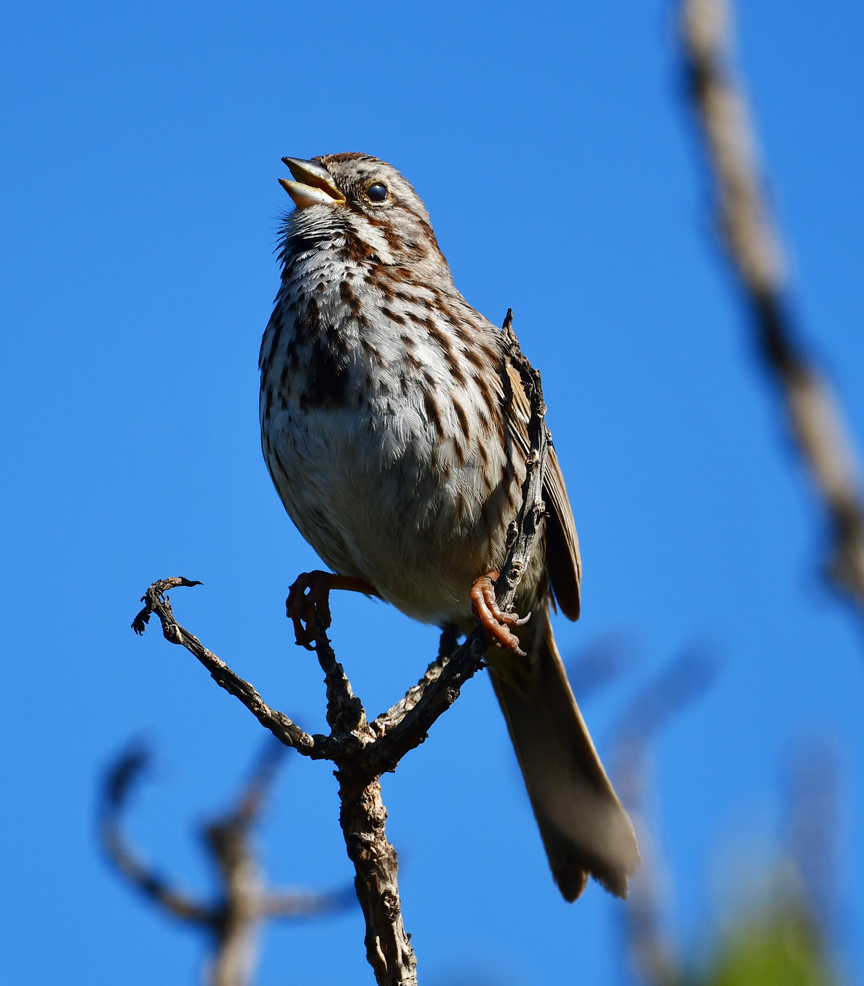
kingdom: Animalia
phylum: Chordata
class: Aves
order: Passeriformes
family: Passerellidae
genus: Melospiza
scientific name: Melospiza melodia
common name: Song sparrow
